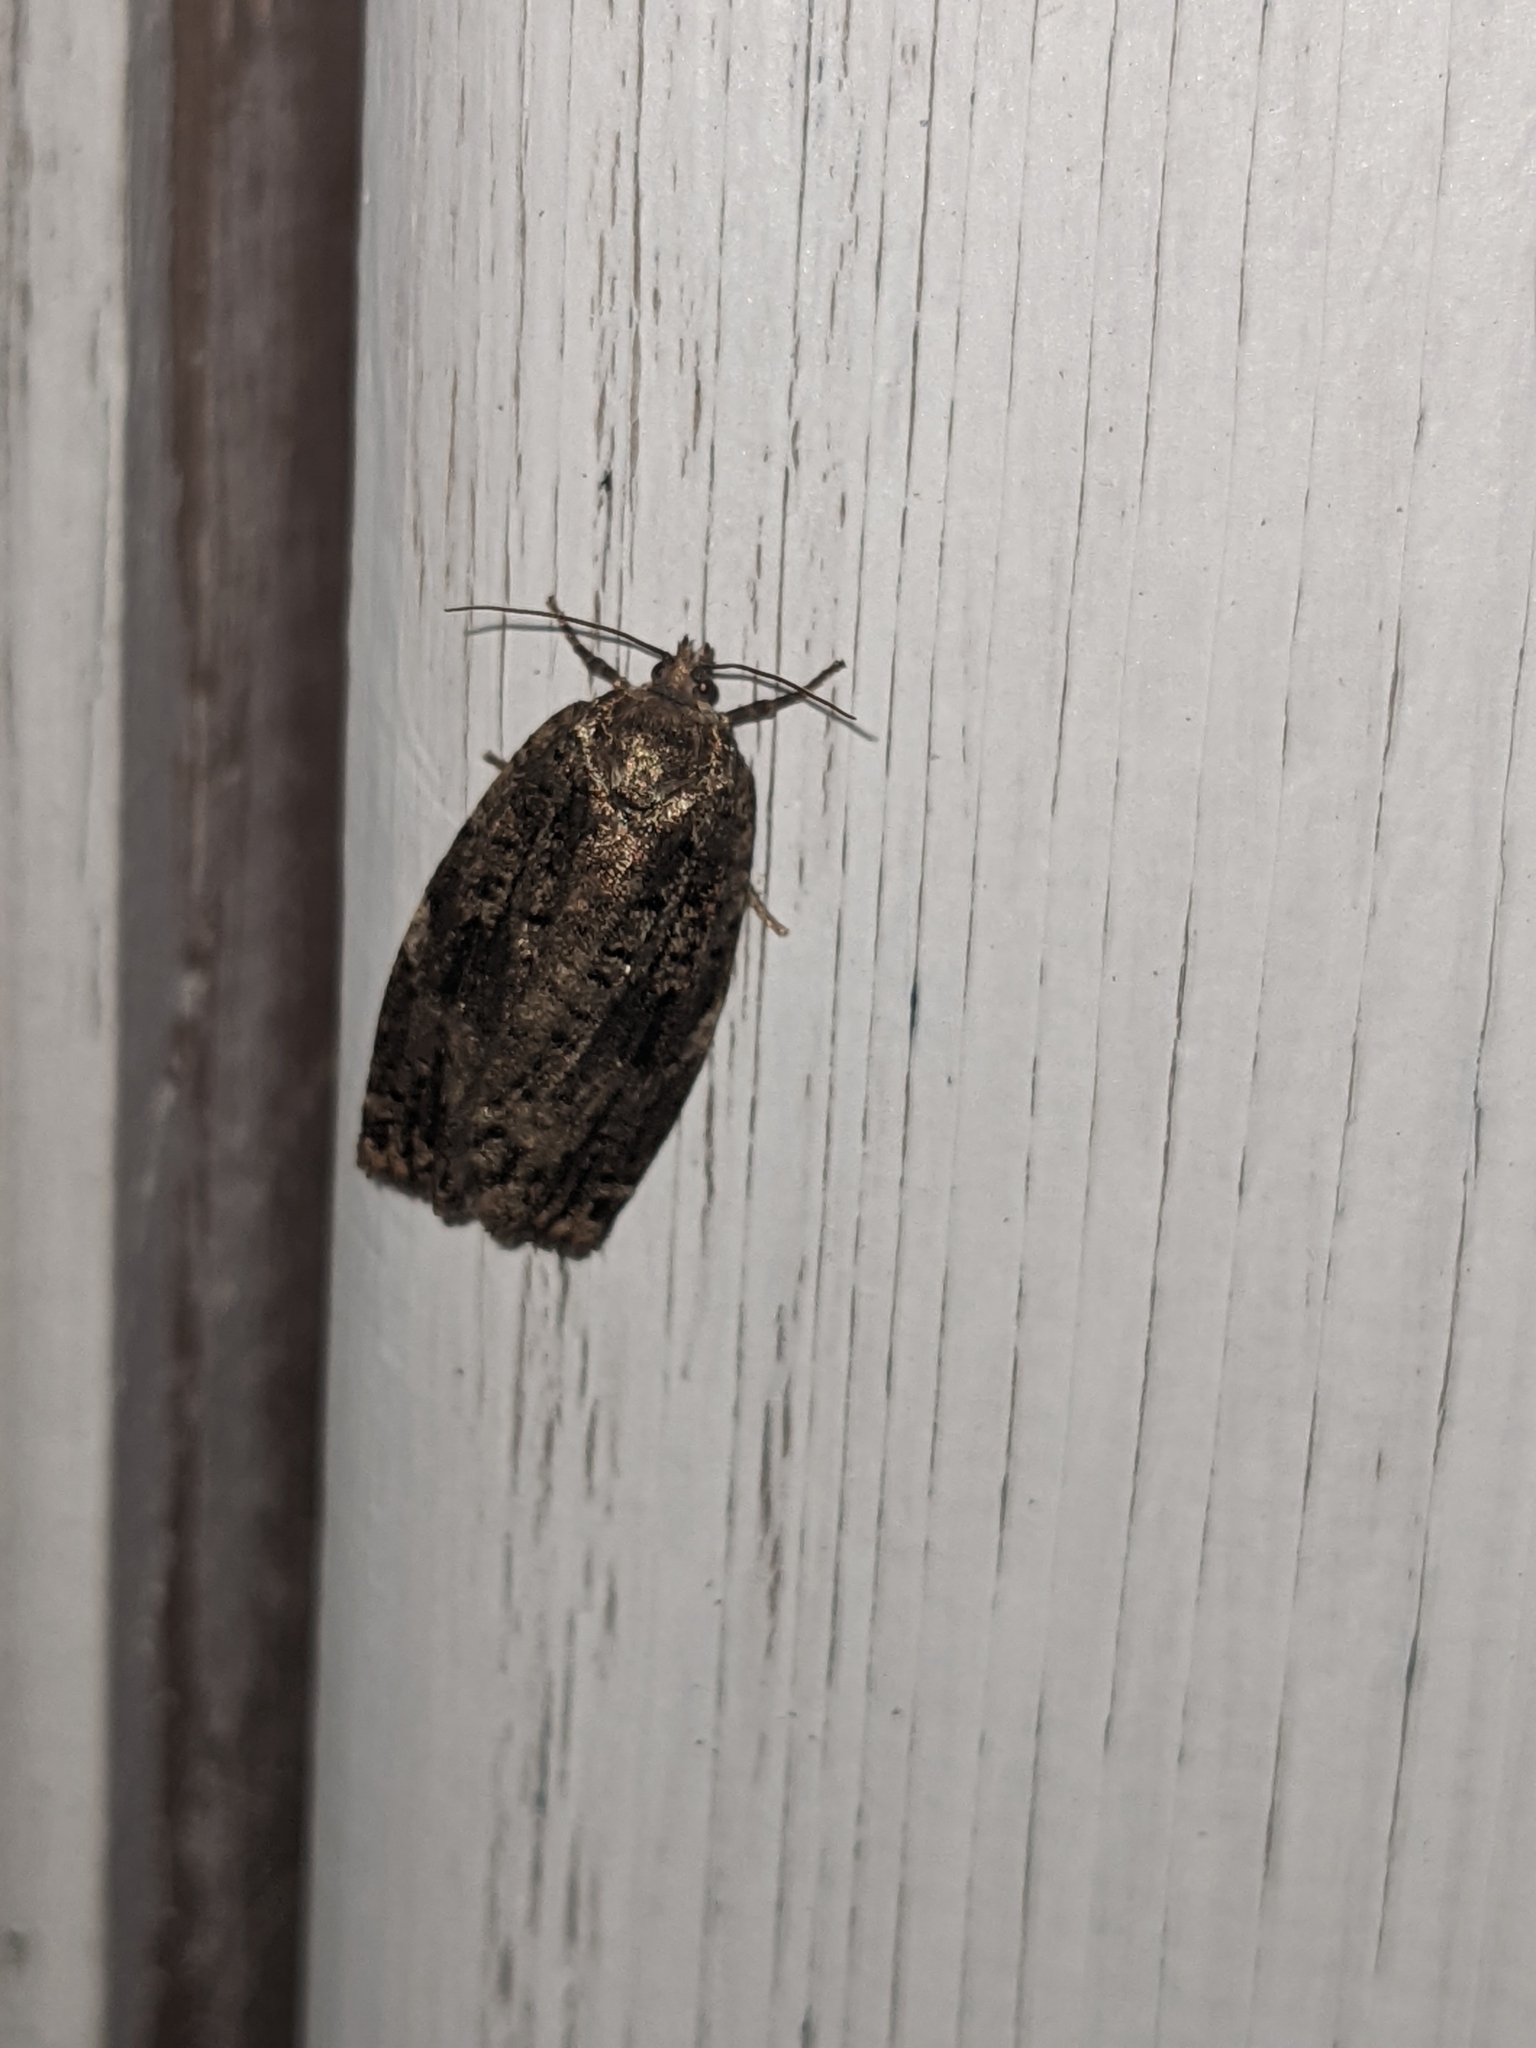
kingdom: Animalia
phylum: Arthropoda
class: Insecta
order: Lepidoptera
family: Tortricidae
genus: Choristoneura
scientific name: Choristoneura fumiferana
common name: Spruce budworm
